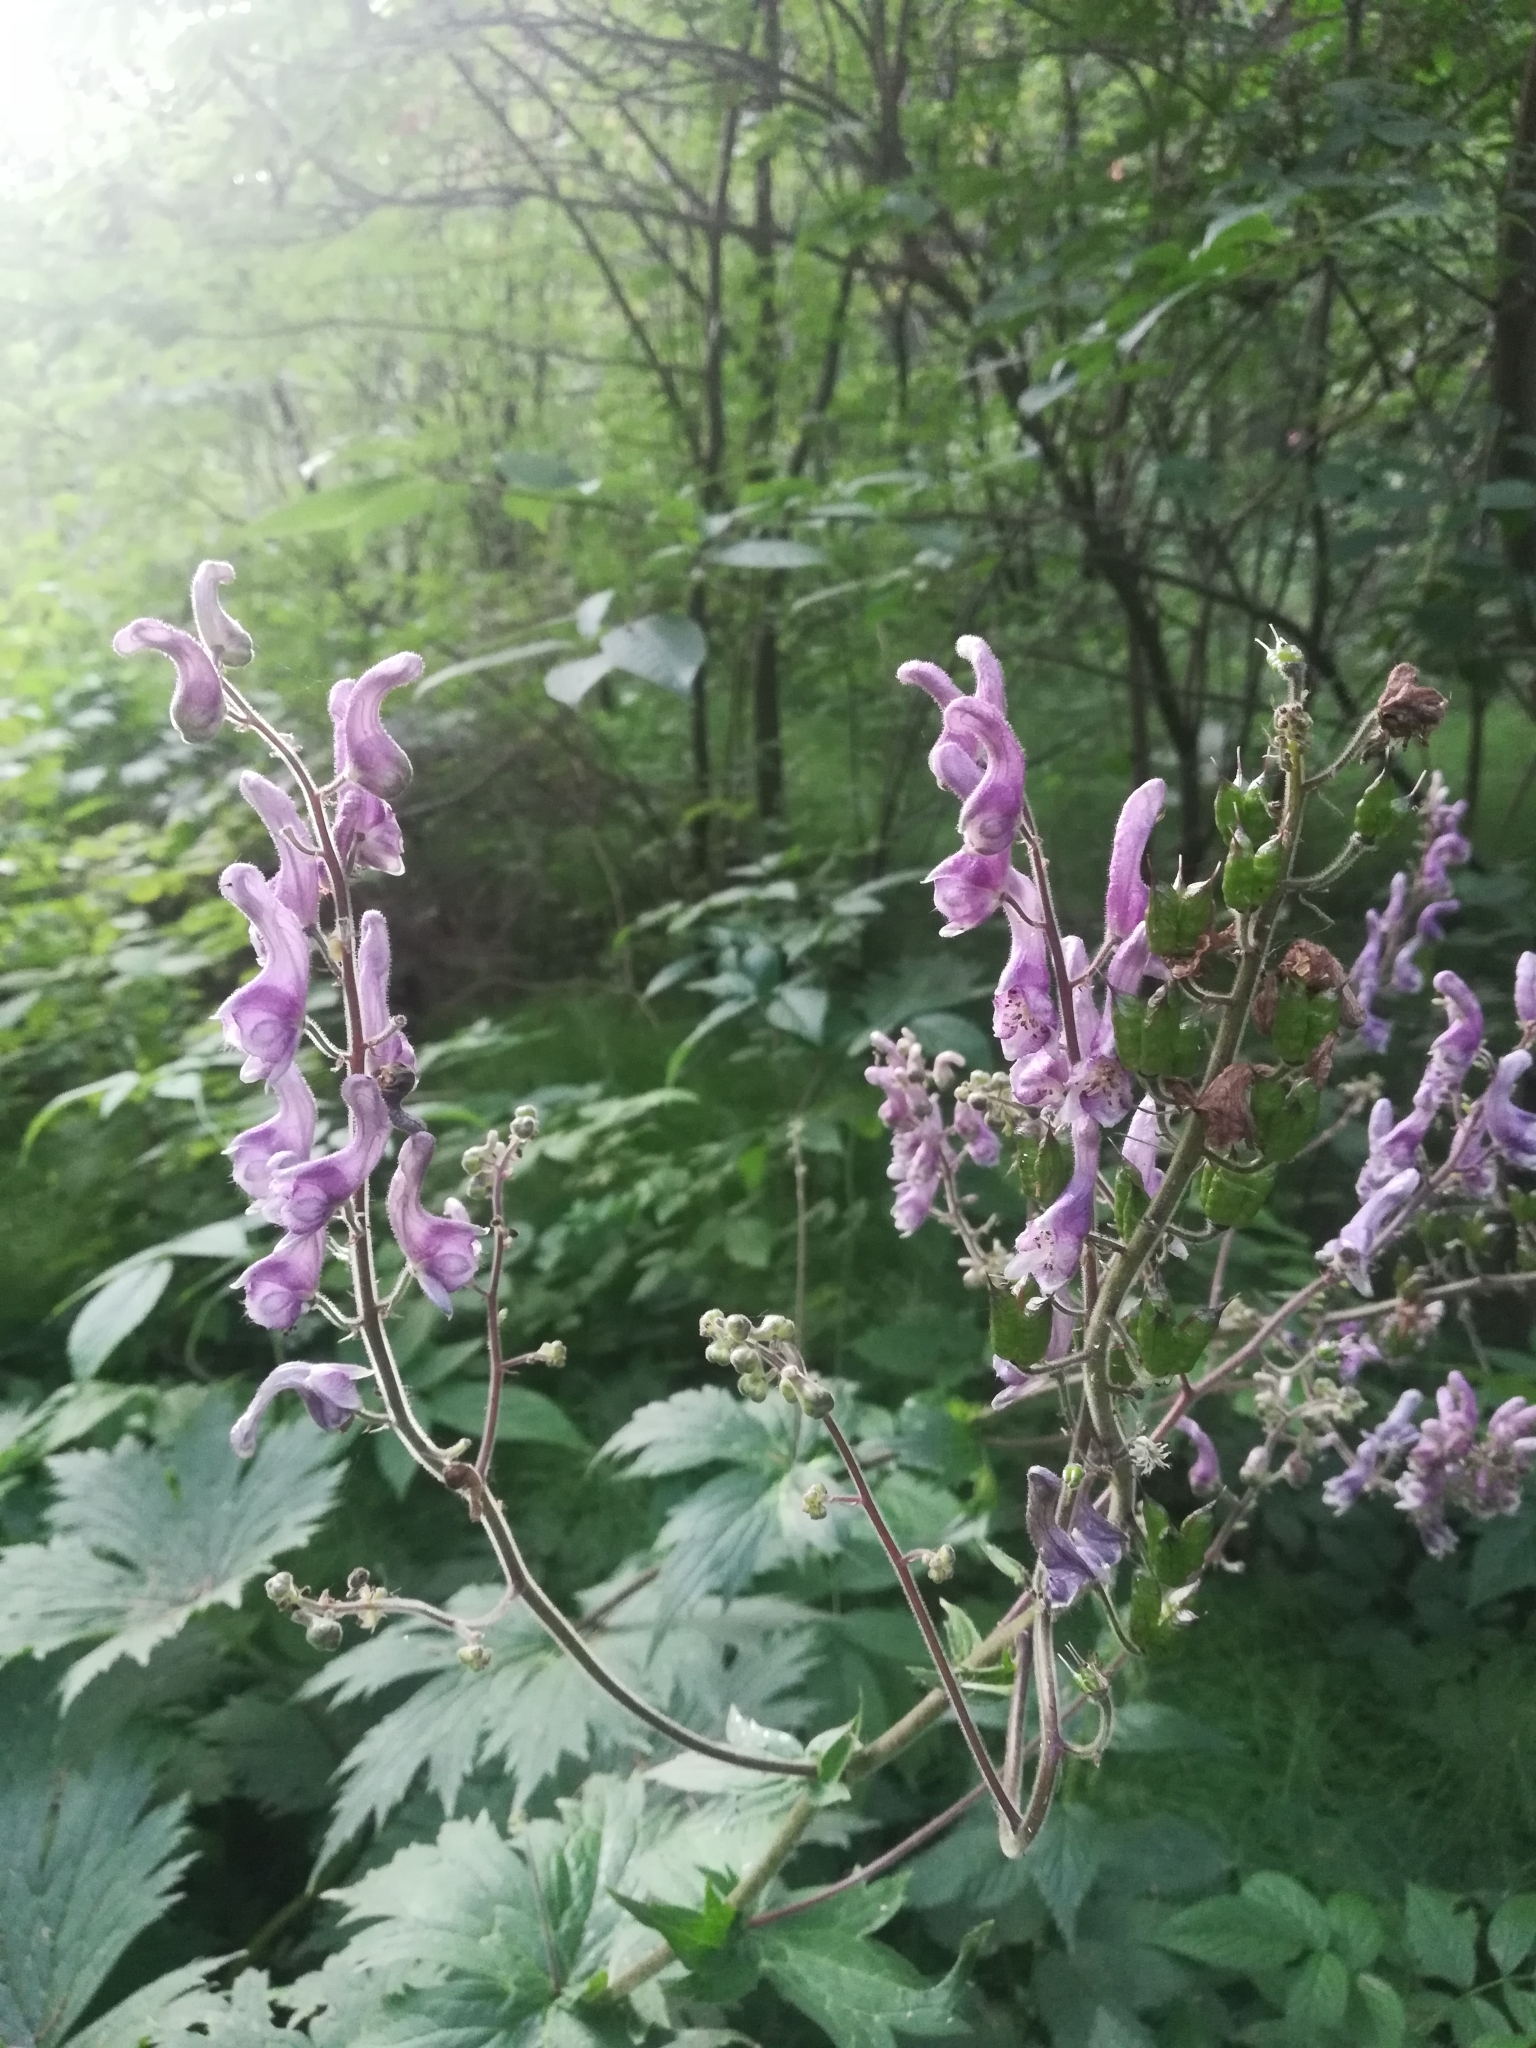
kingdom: Plantae
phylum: Tracheophyta
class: Magnoliopsida
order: Ranunculales
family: Ranunculaceae
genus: Aconitum
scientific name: Aconitum septentrionale
